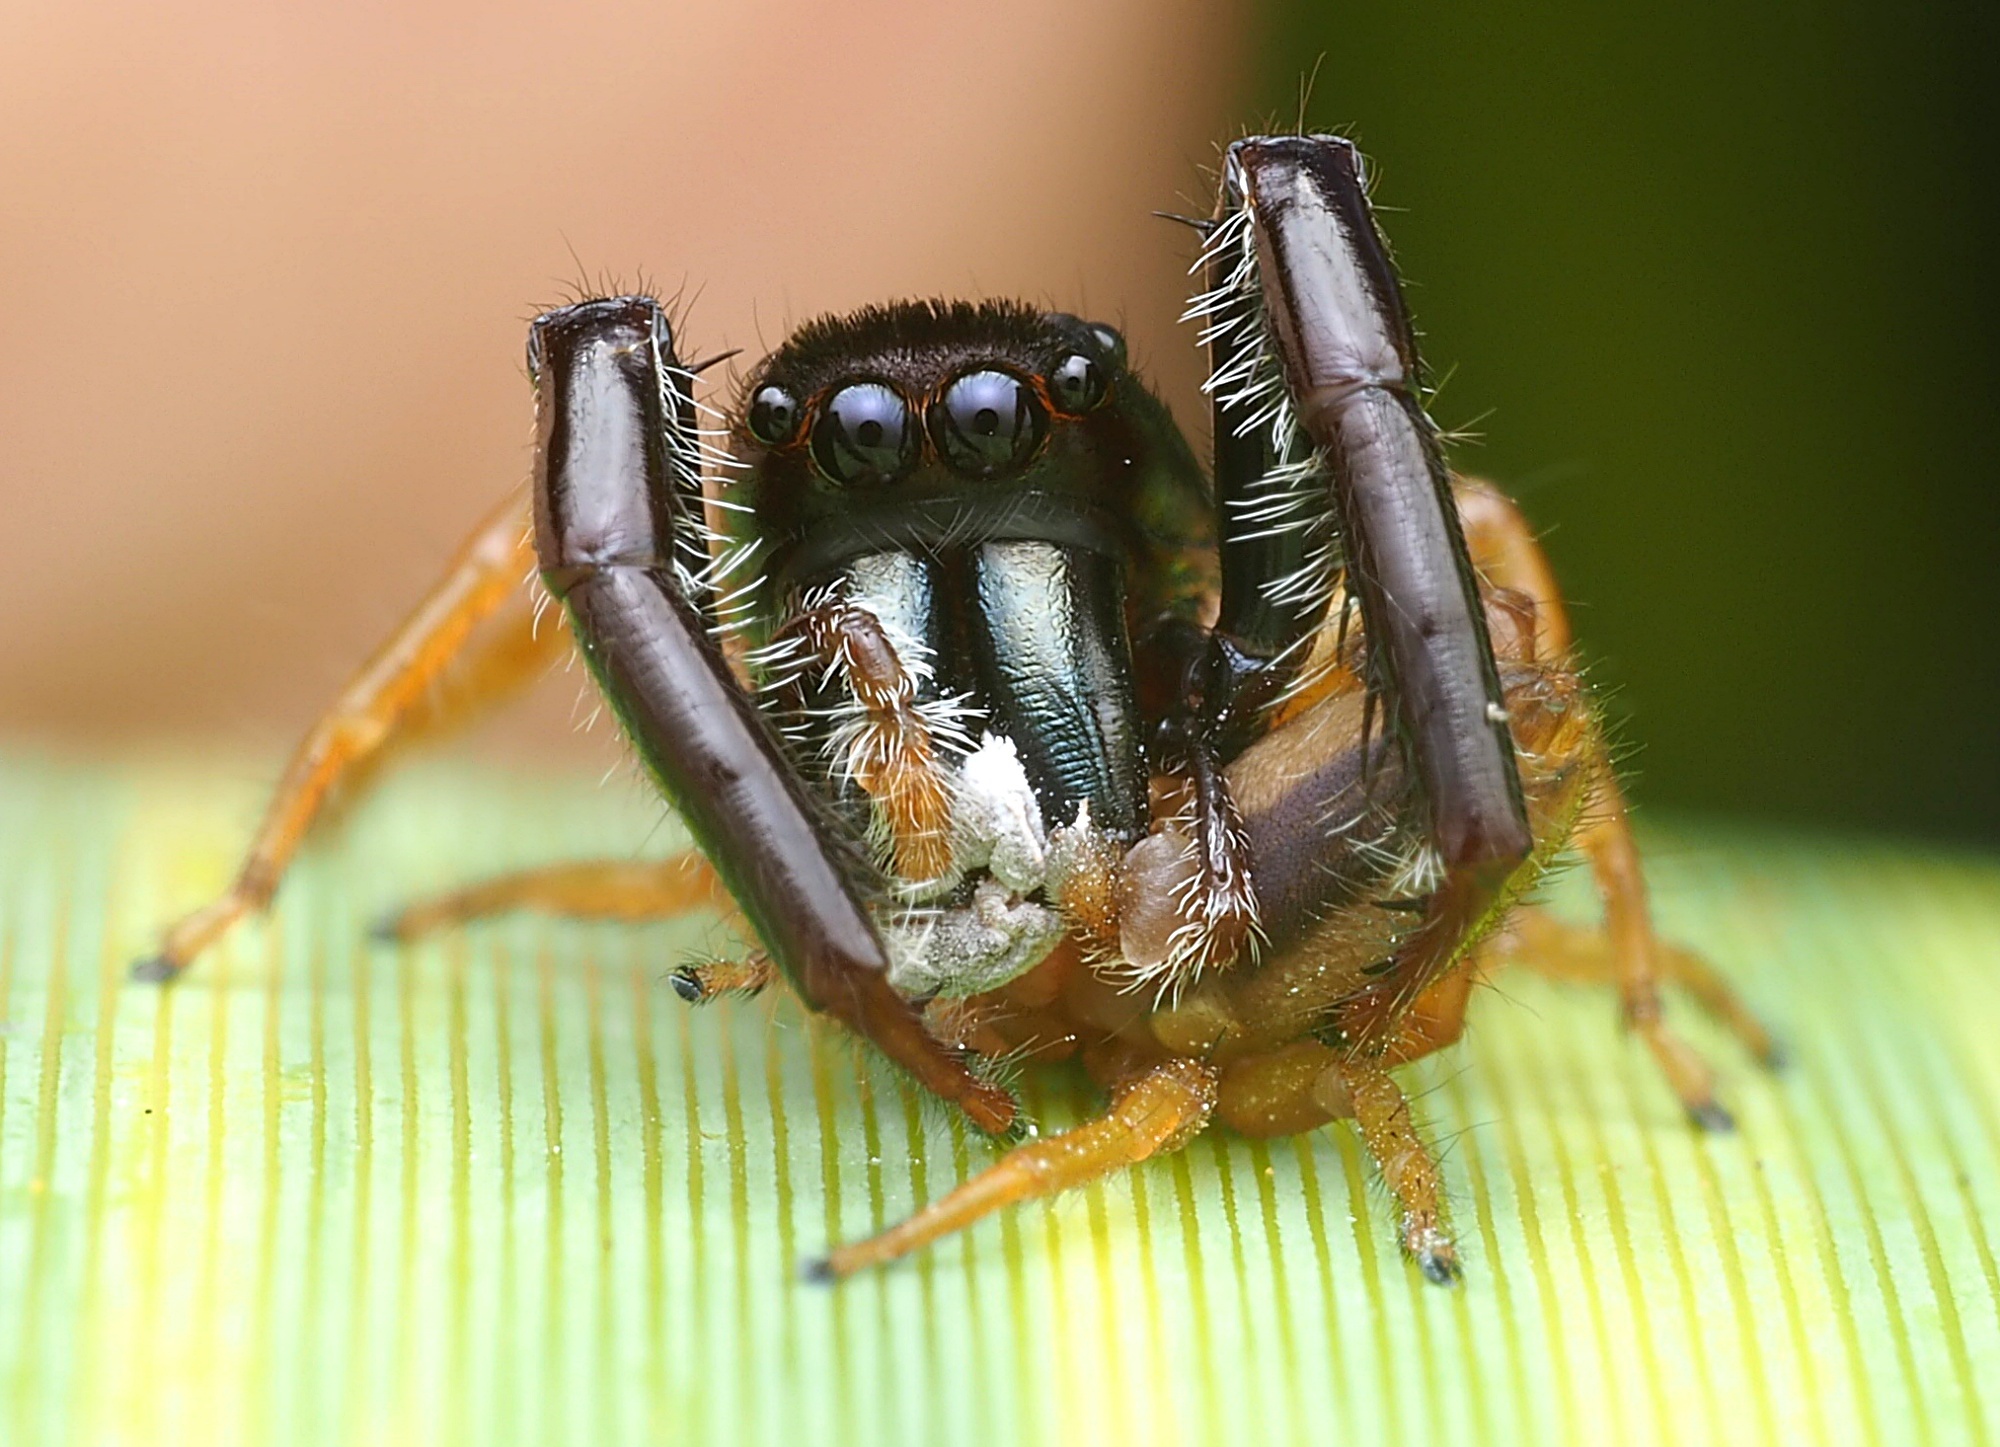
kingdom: Animalia
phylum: Arthropoda
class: Arachnida
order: Araneae
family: Salticidae
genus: Trite
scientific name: Trite planiceps
